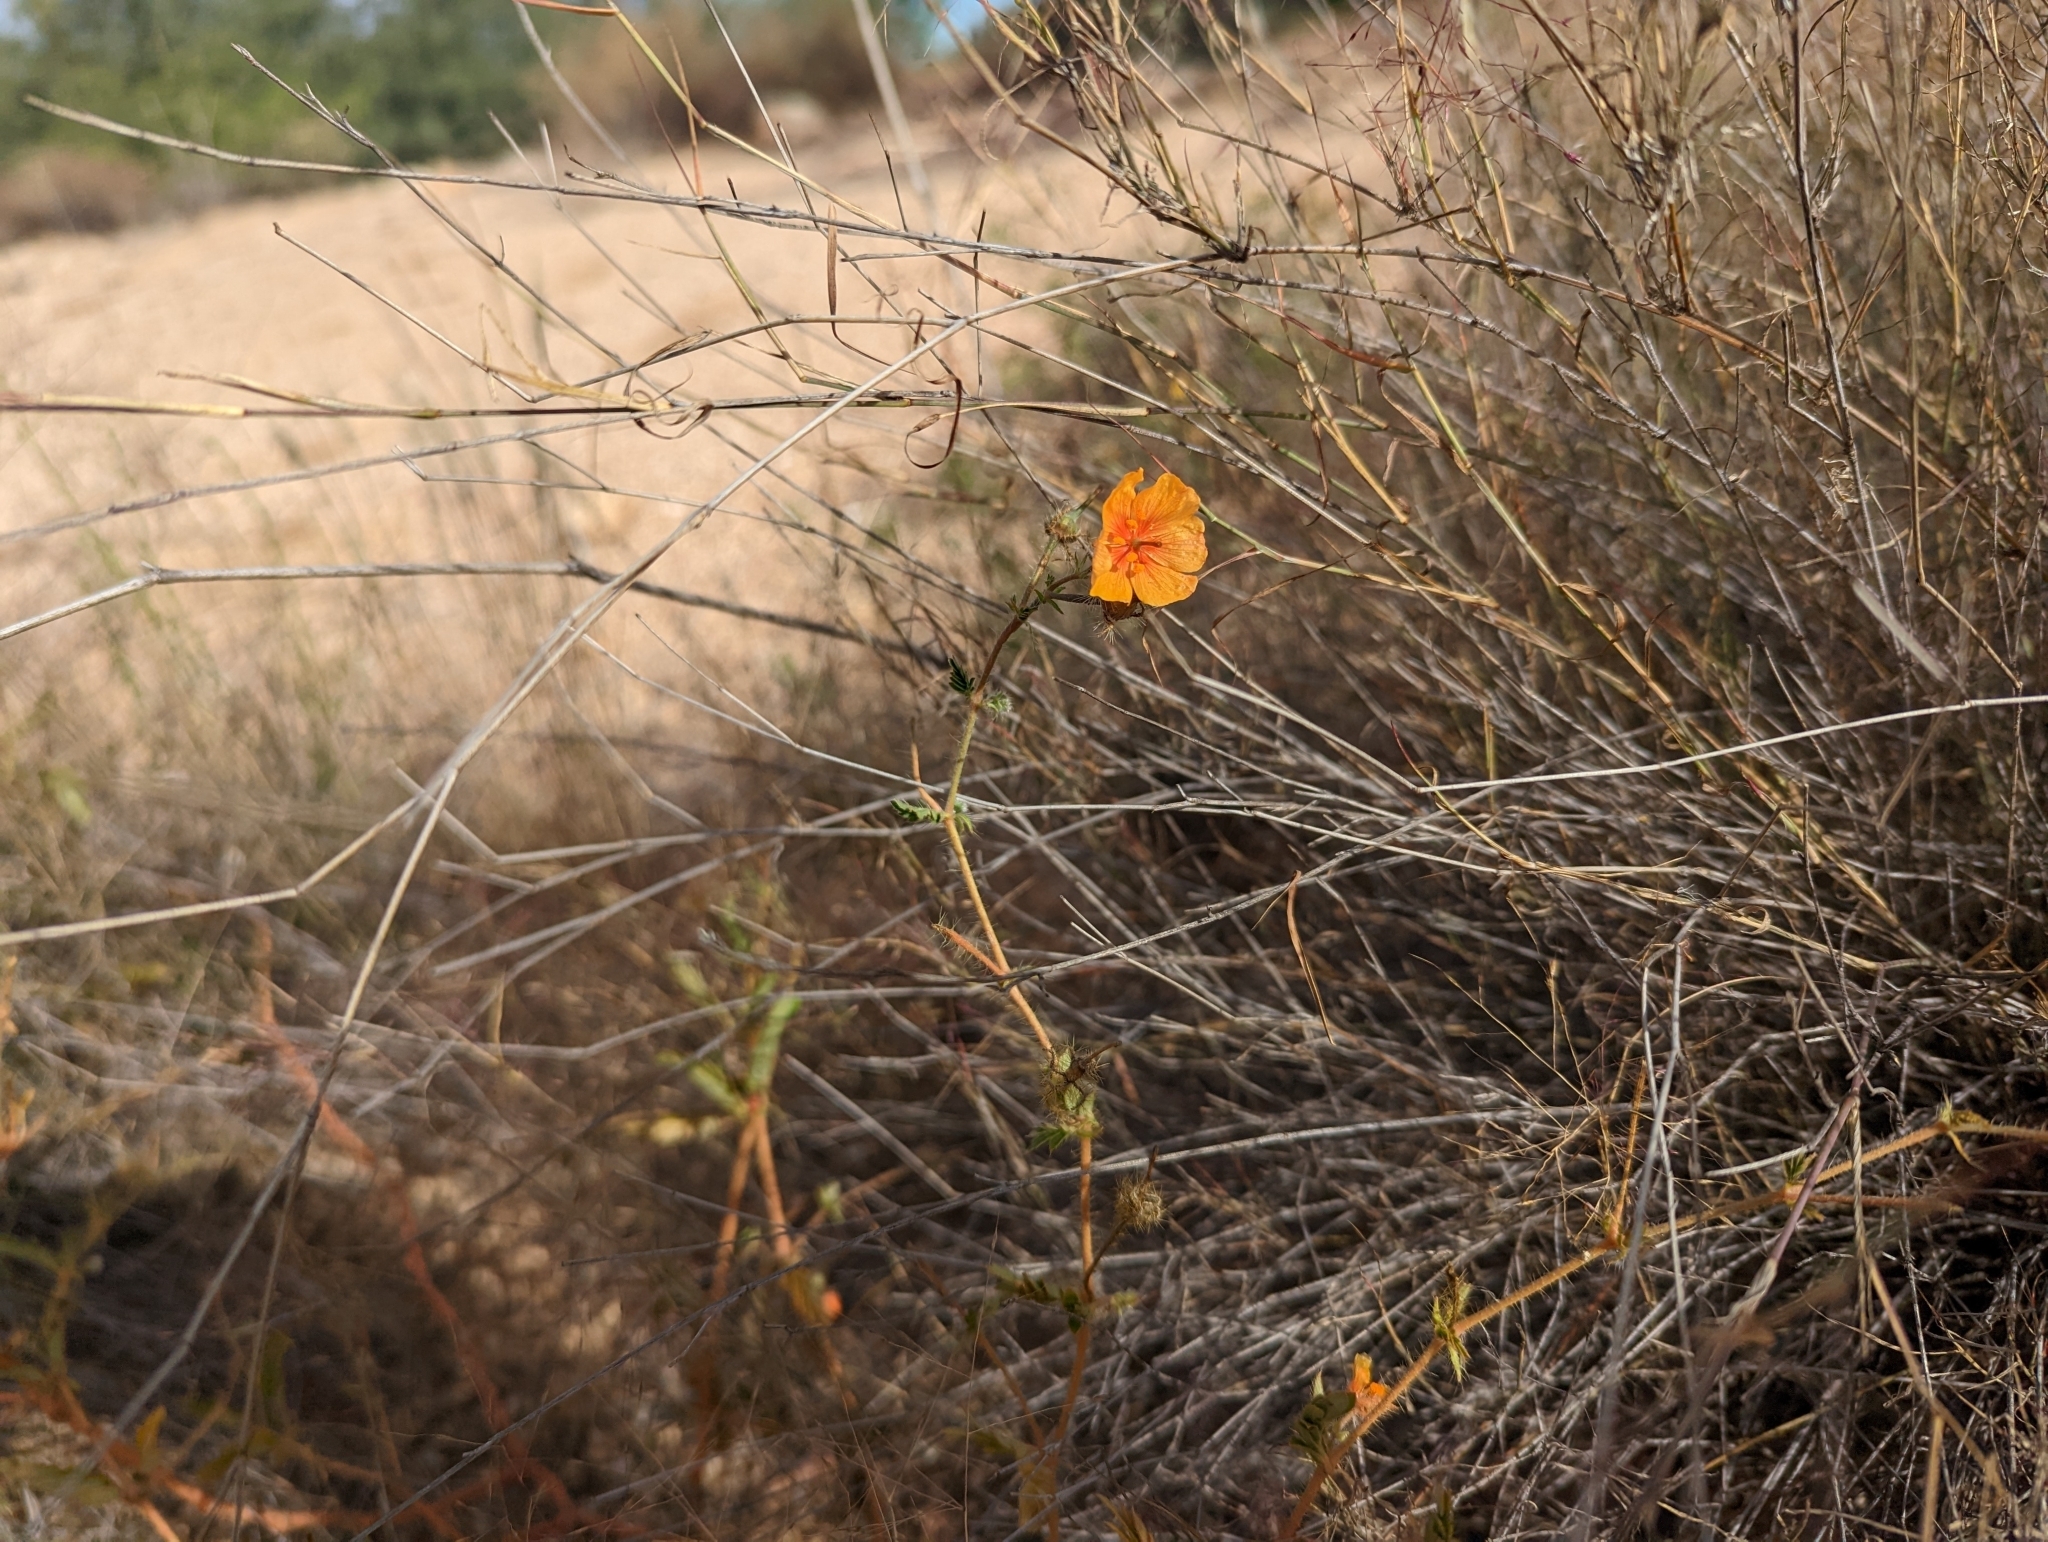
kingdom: Plantae
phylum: Tracheophyta
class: Magnoliopsida
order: Zygophyllales
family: Zygophyllaceae
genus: Kallstroemia
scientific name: Kallstroemia grandiflora
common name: Arizona-poppy
